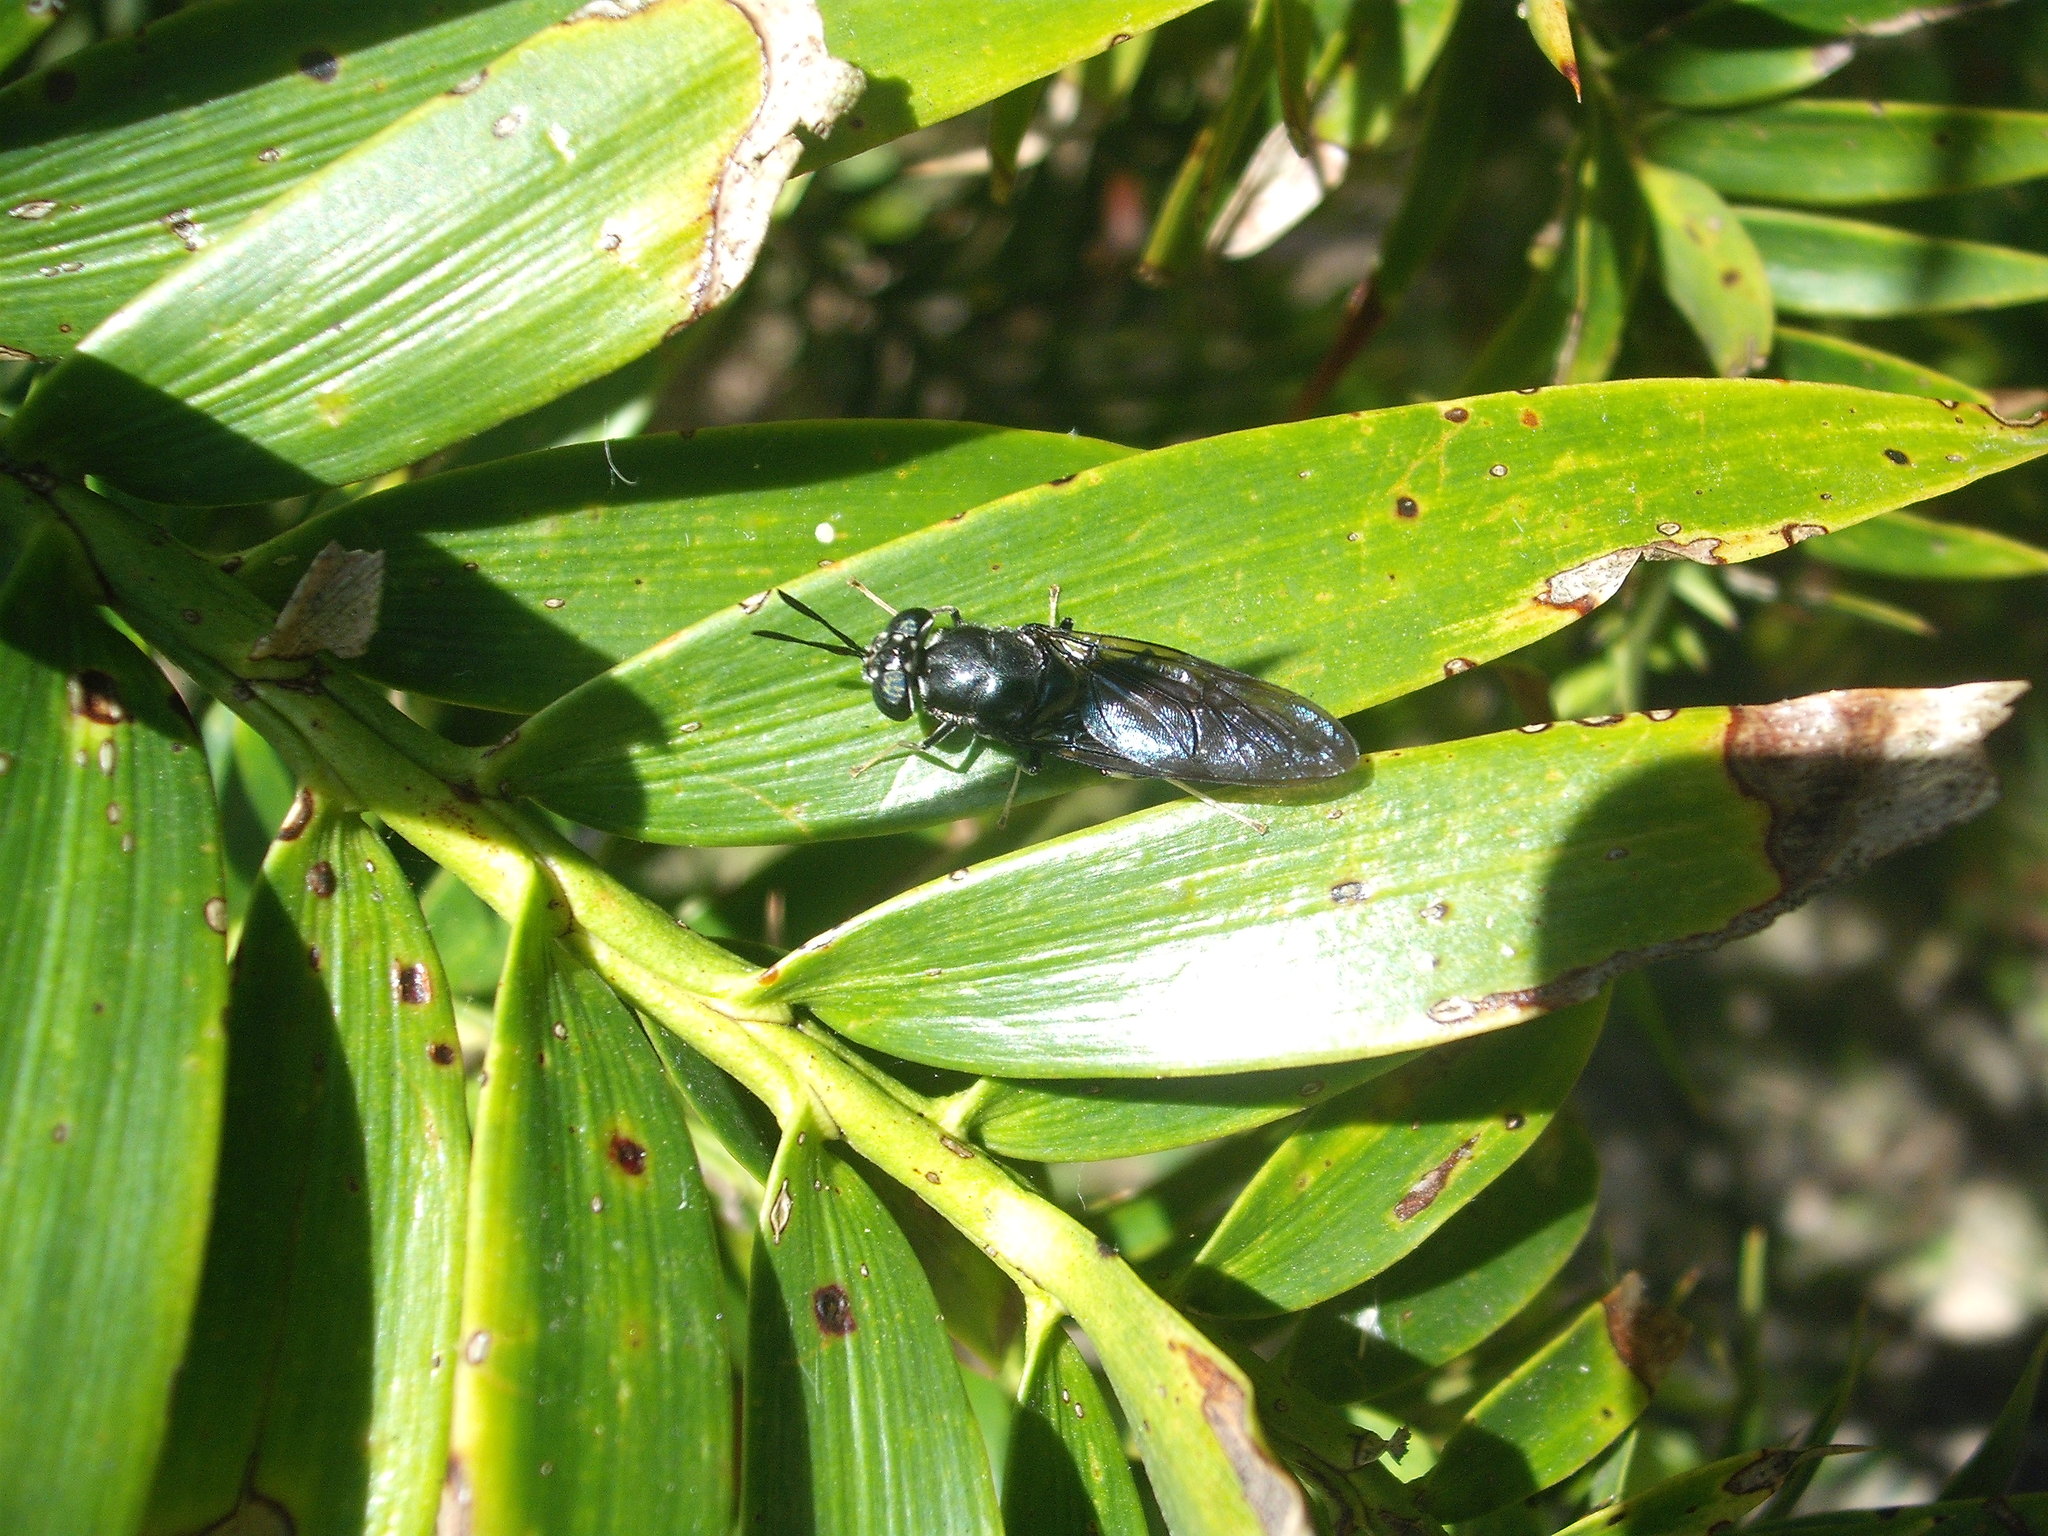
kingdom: Animalia
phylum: Arthropoda
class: Insecta
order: Diptera
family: Stratiomyidae
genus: Hermetia
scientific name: Hermetia illucens
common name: Black soldier fly
